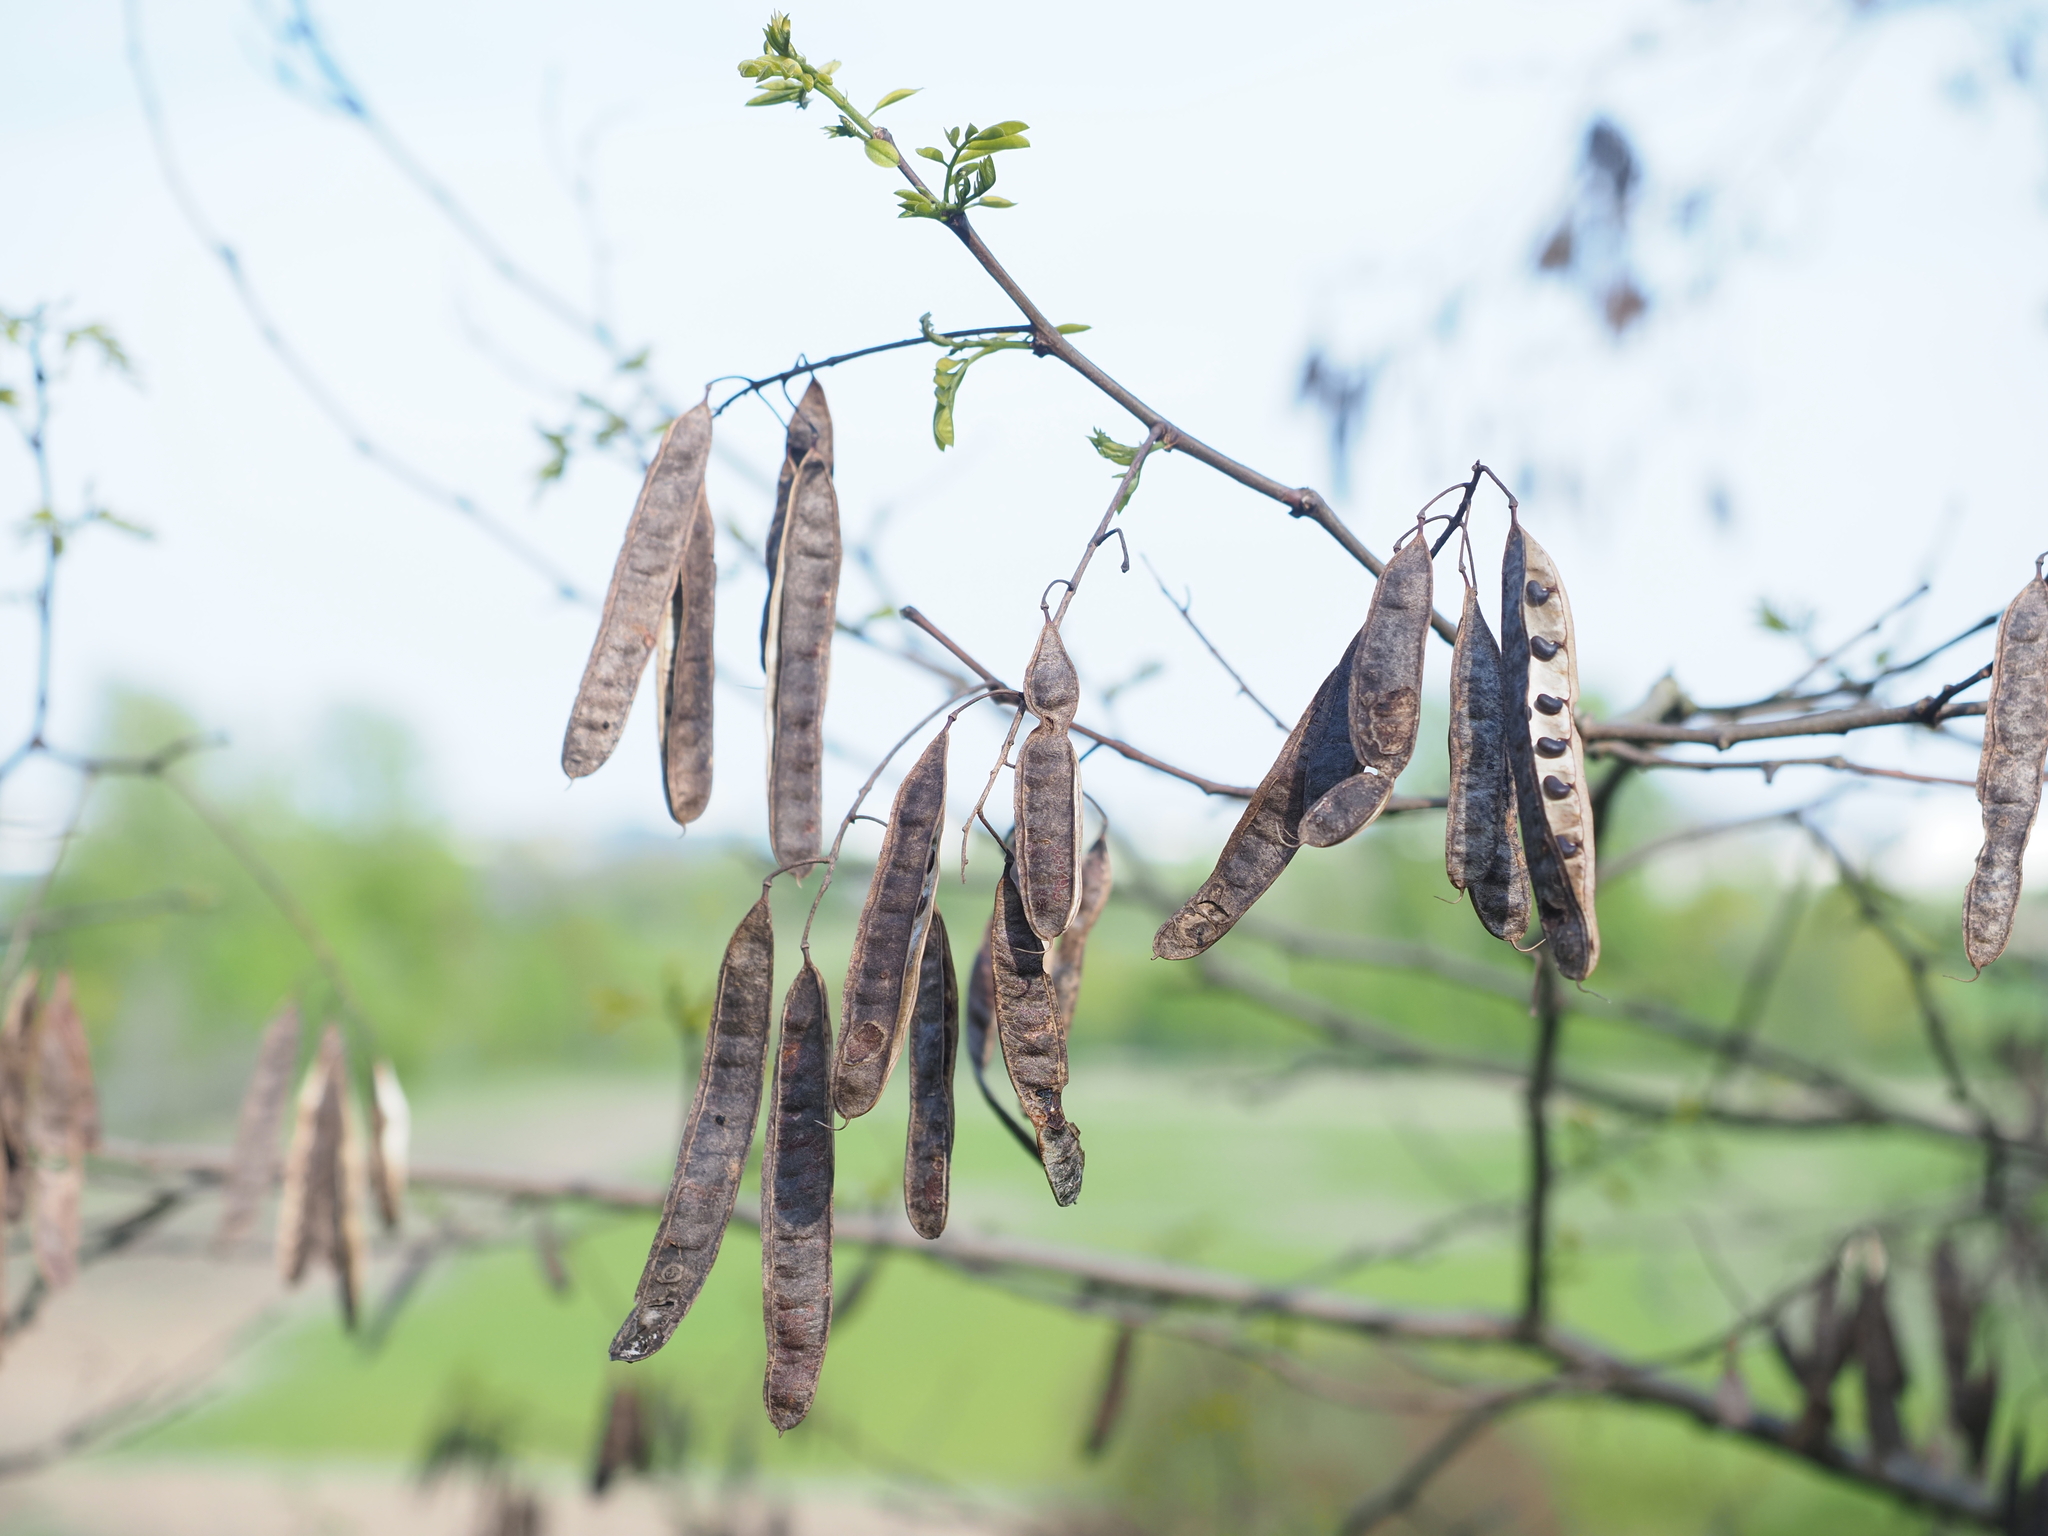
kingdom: Plantae
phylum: Tracheophyta
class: Magnoliopsida
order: Fabales
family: Fabaceae
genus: Robinia
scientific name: Robinia pseudoacacia
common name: Black locust
